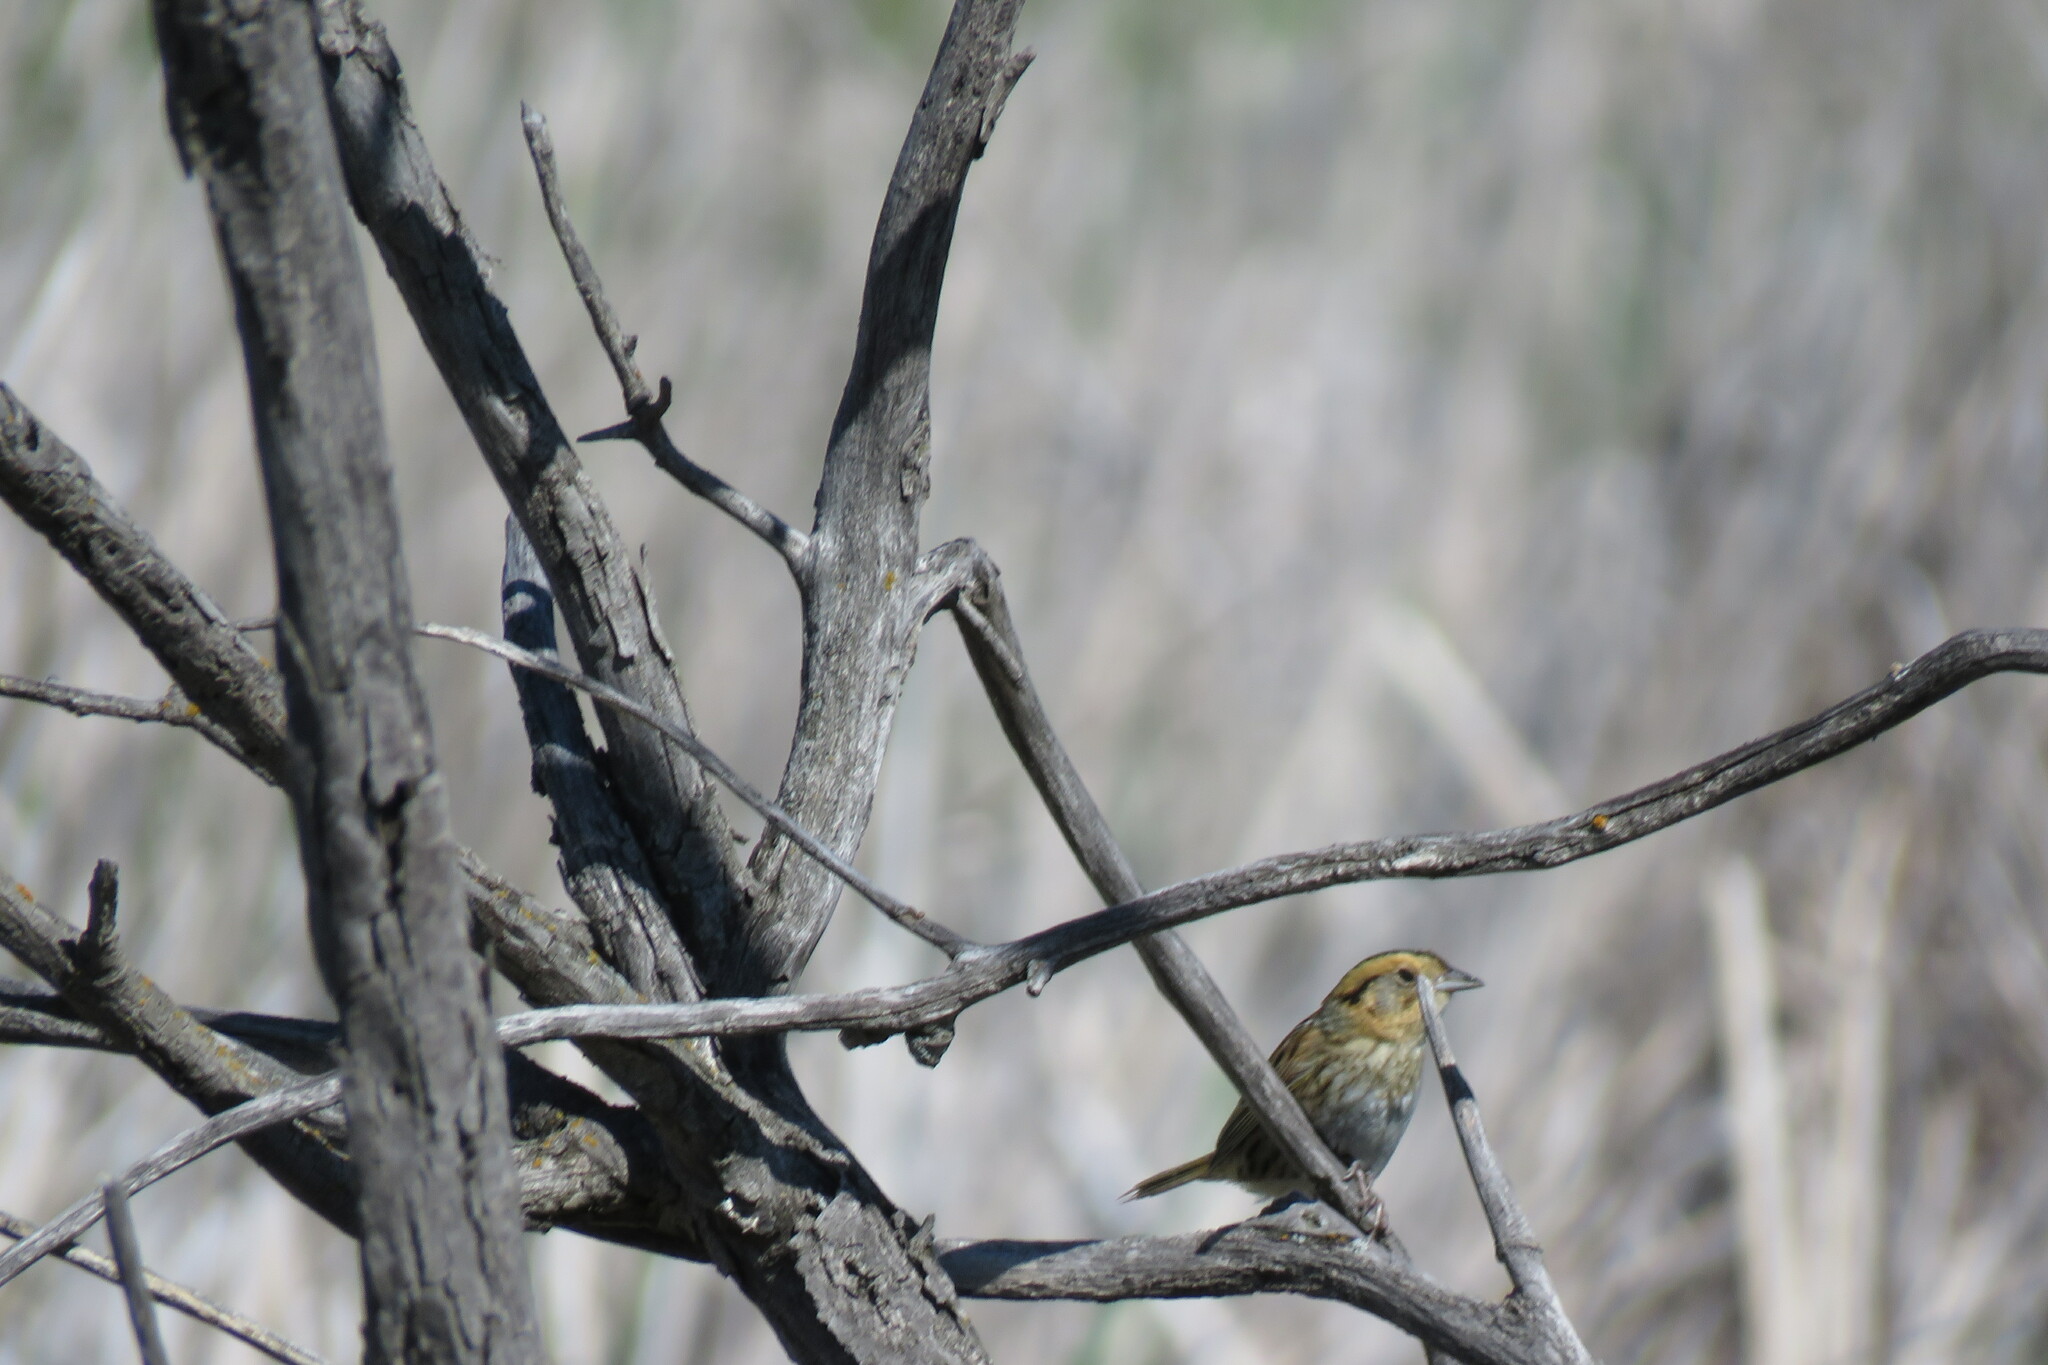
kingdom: Animalia
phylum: Chordata
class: Aves
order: Passeriformes
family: Passerellidae
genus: Ammospiza
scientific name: Ammospiza nelsoni
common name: Nelson's sparrow
